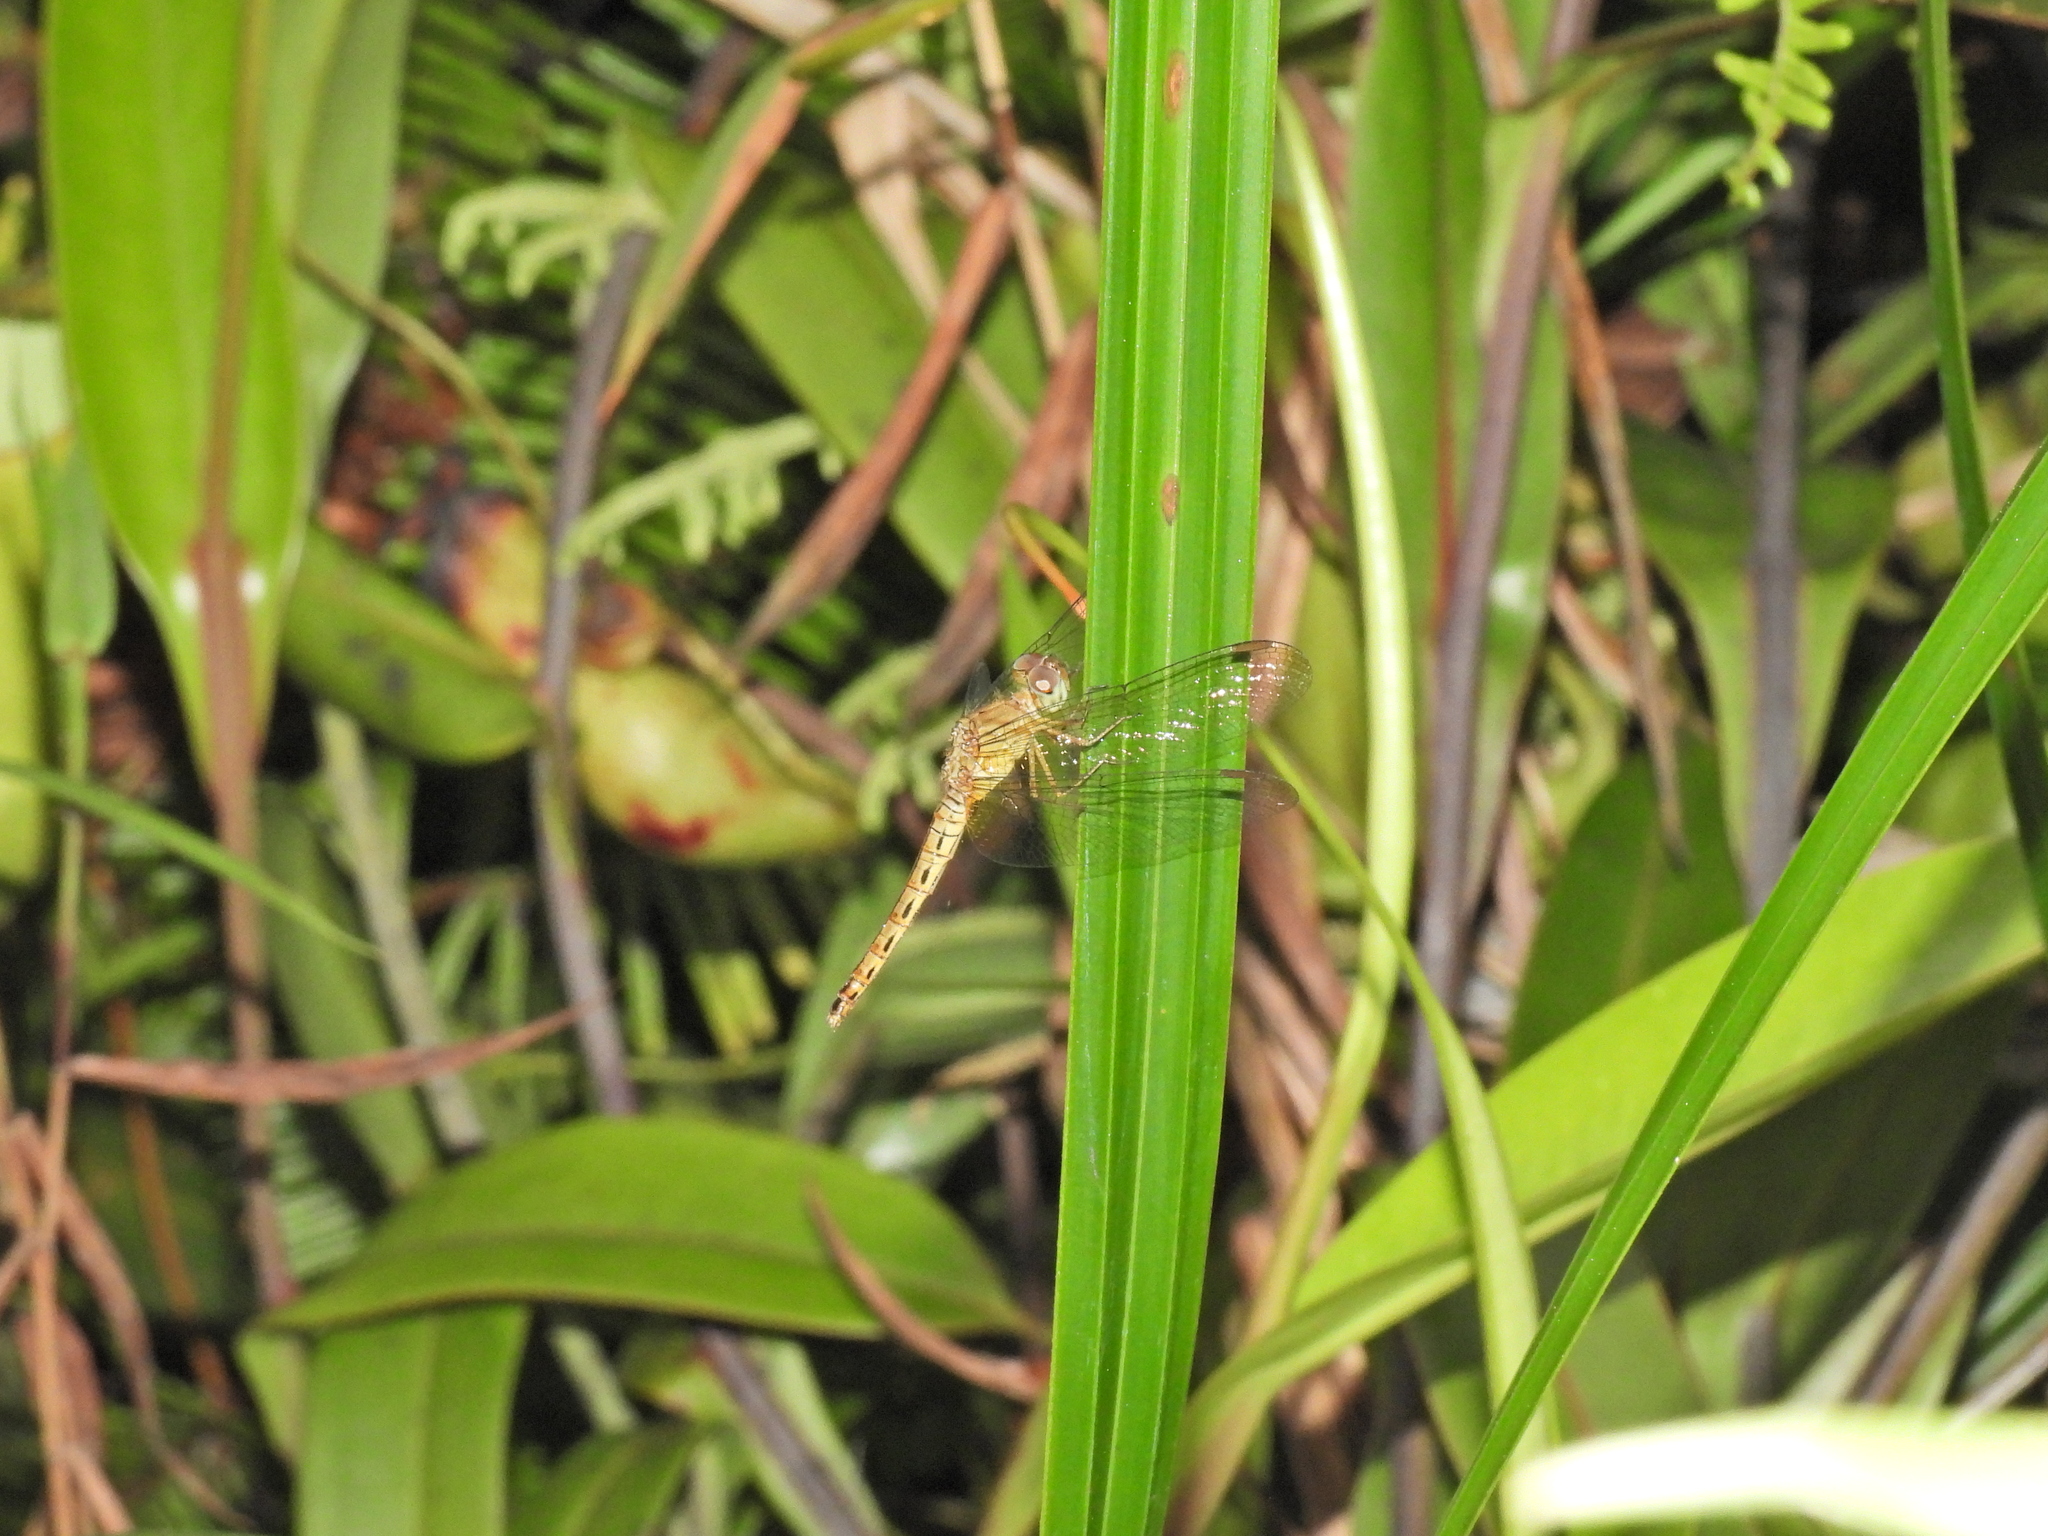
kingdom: Animalia
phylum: Arthropoda
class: Insecta
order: Odonata
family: Libellulidae
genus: Neurothemis
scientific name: Neurothemis fluctuans
